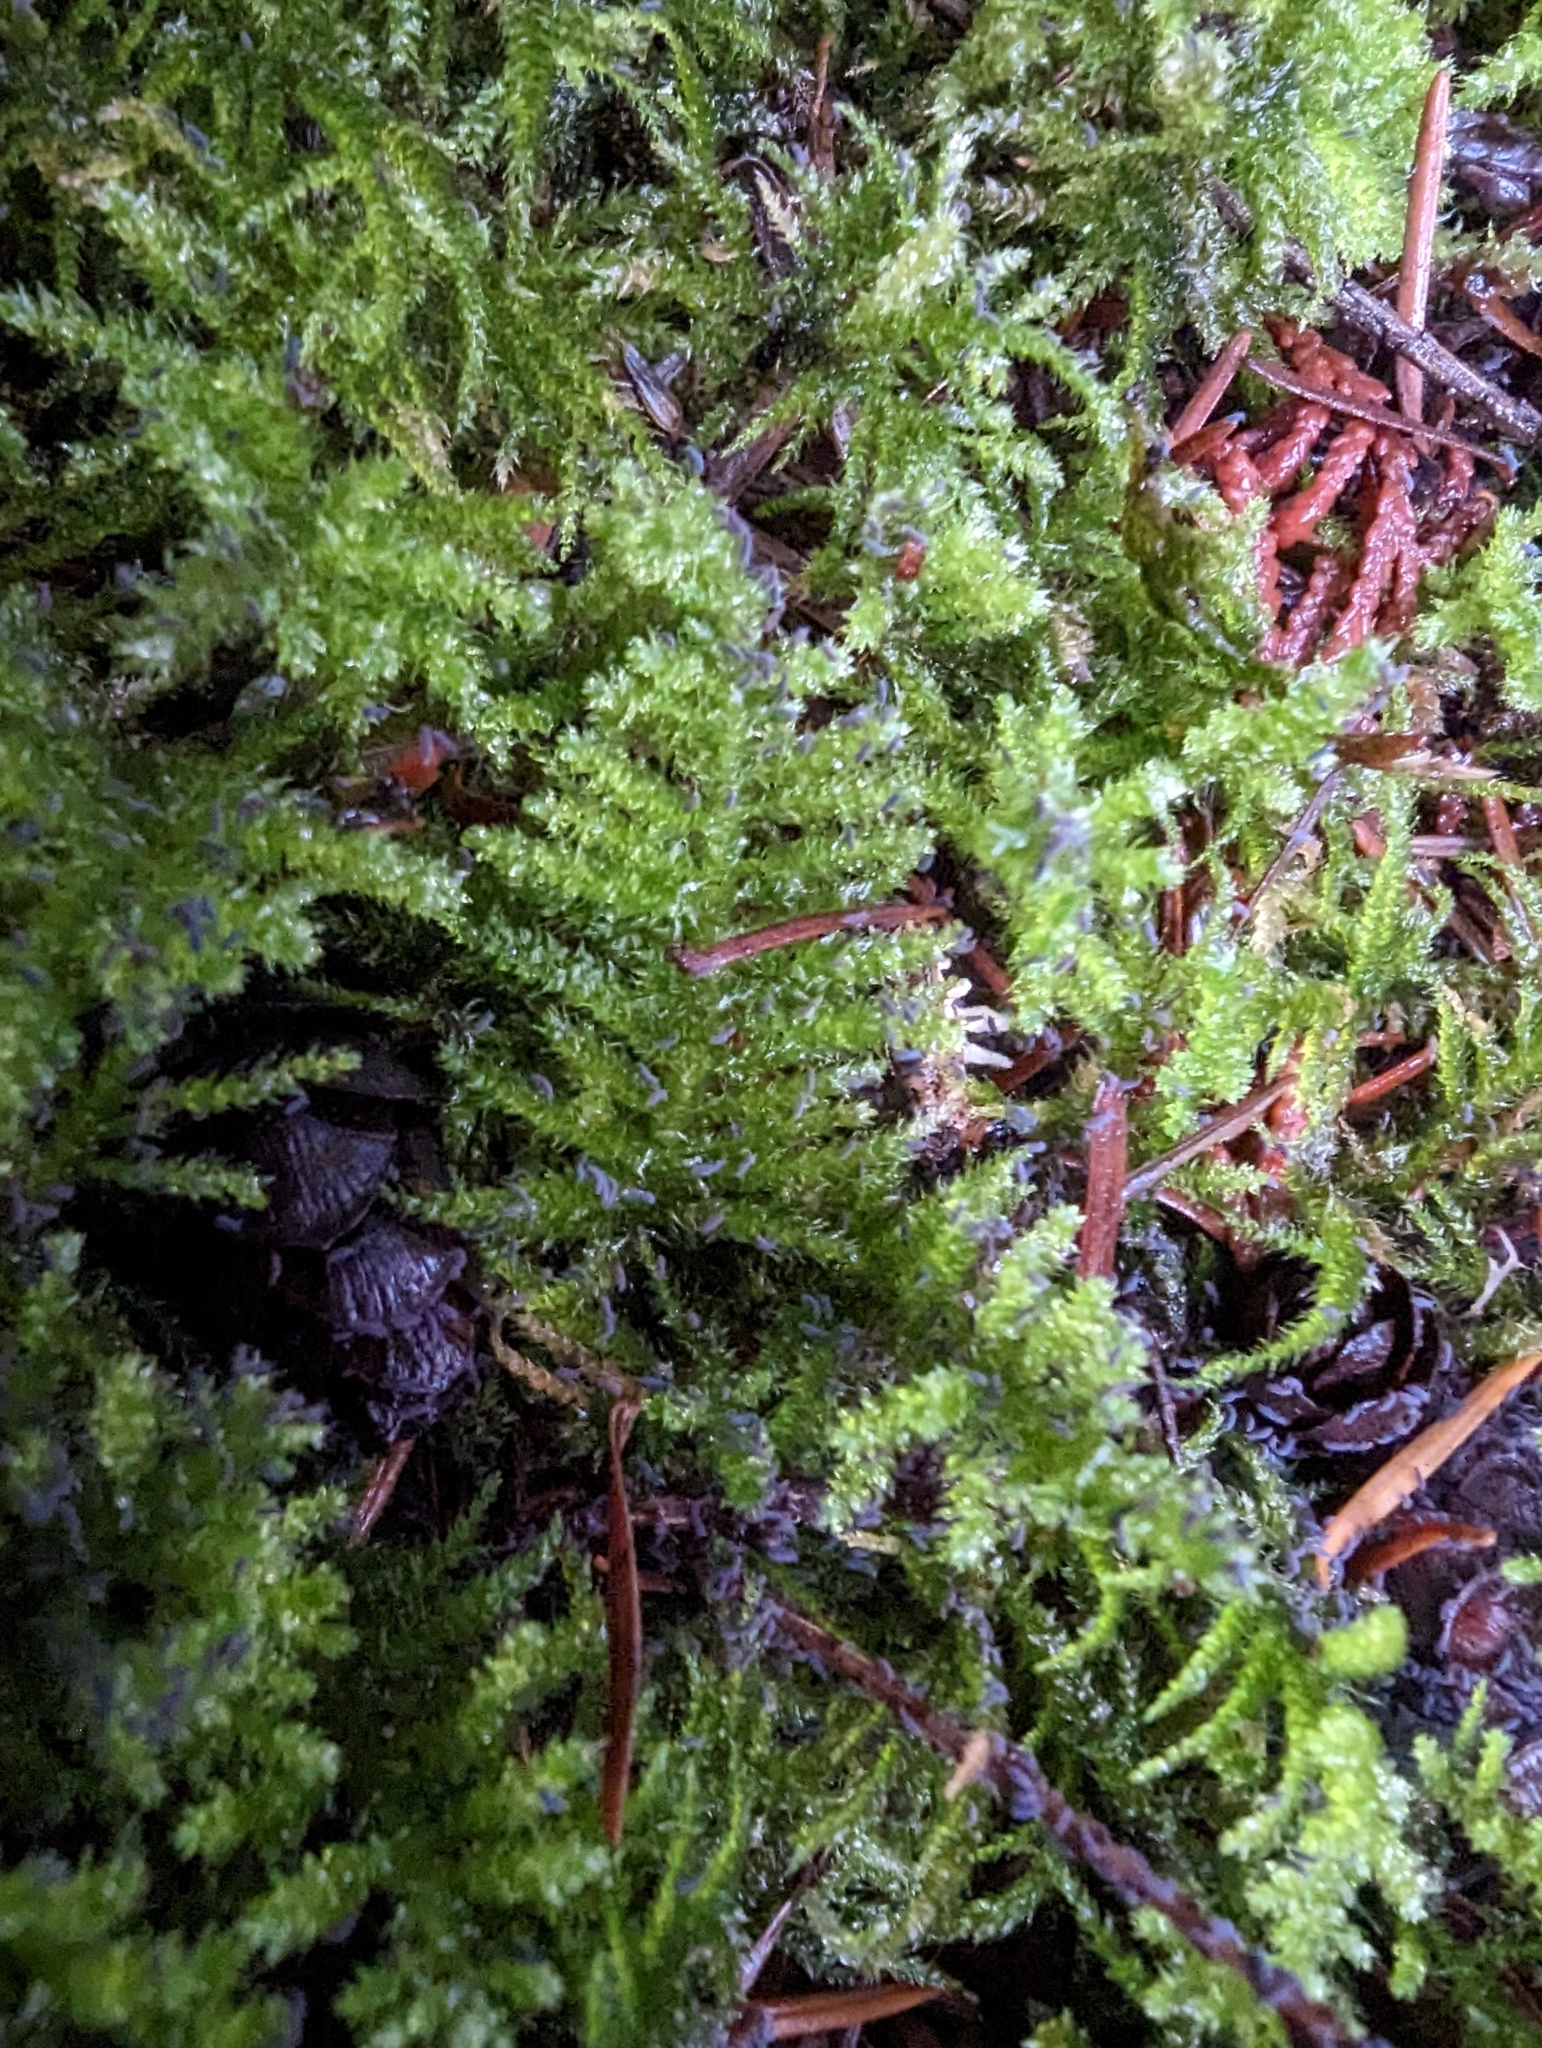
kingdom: Plantae
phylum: Bryophyta
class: Bryopsida
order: Hypnales
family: Brachytheciaceae
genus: Kindbergia
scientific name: Kindbergia oregana
